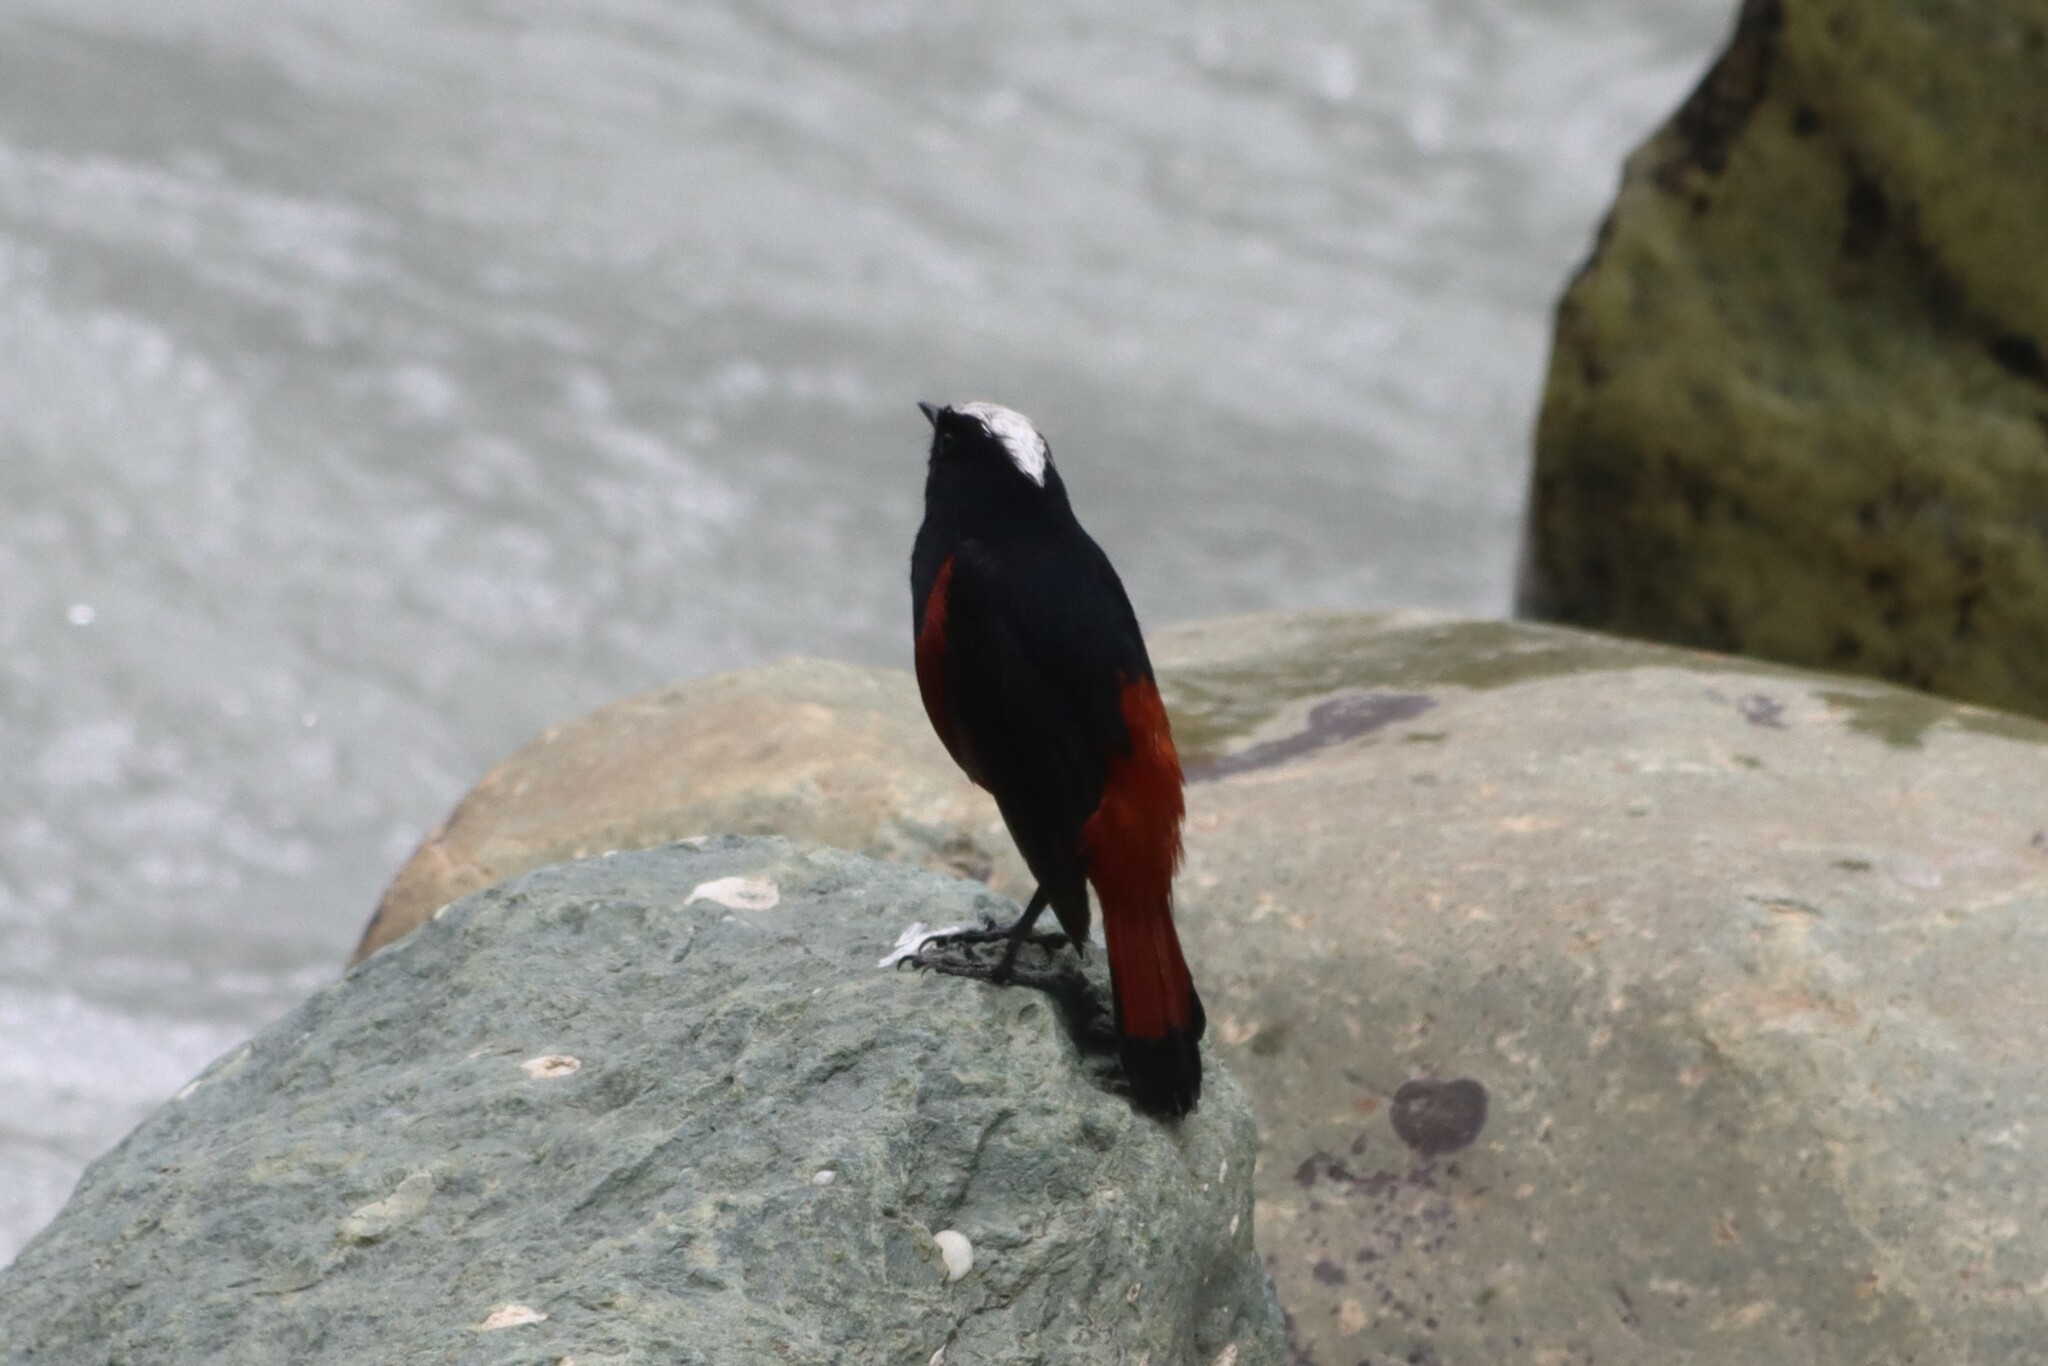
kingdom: Animalia
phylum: Chordata
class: Aves
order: Passeriformes
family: Muscicapidae
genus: Chaimarrornis
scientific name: Chaimarrornis leucocephalus
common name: White-capped redstart
